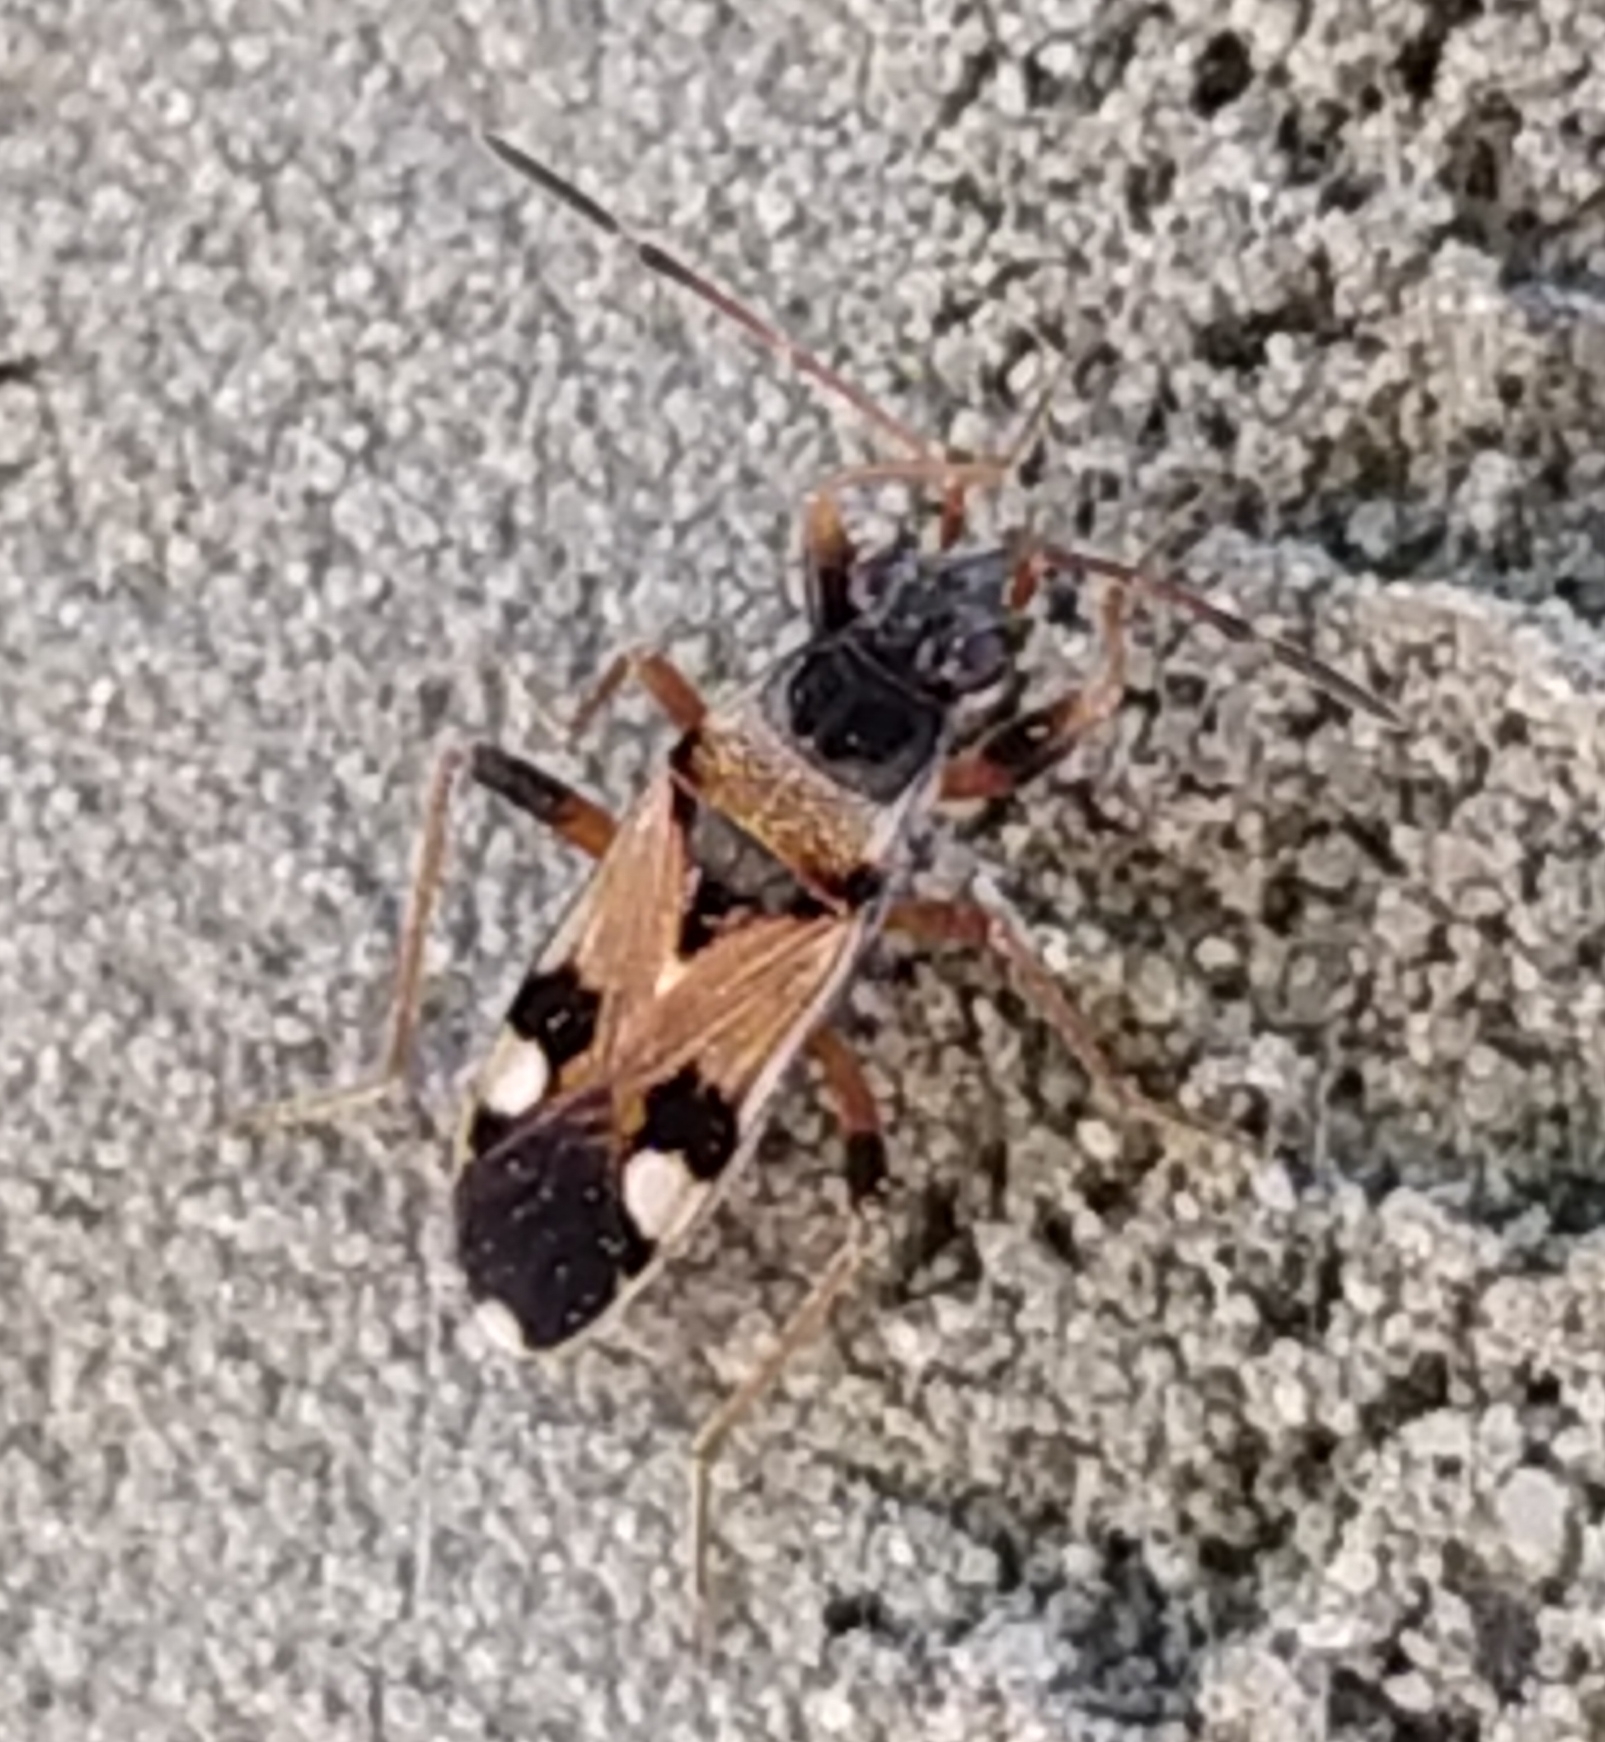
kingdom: Animalia
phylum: Arthropoda
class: Insecta
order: Hemiptera
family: Rhyparochromidae
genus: Raglius
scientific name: Raglius alboacuminatus
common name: Dirt-colored seed bug
